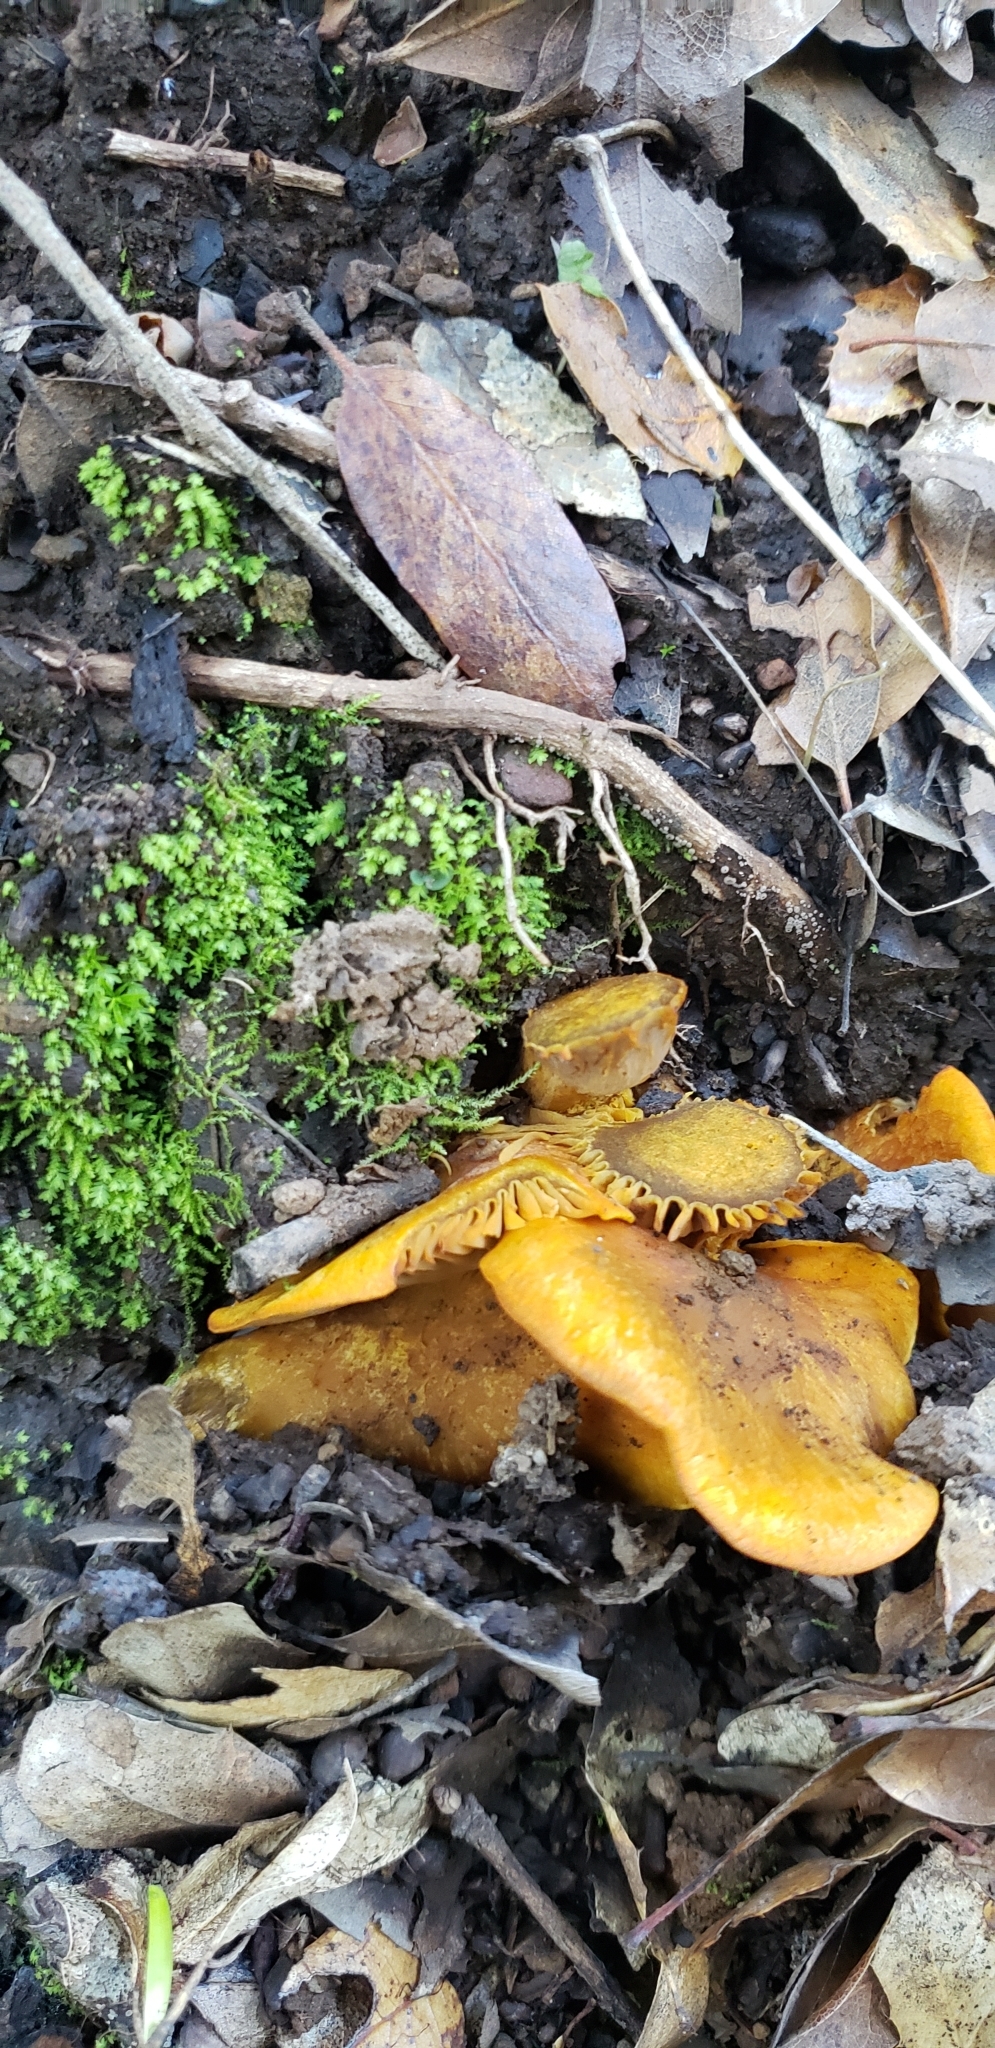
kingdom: Fungi
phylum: Basidiomycota
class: Agaricomycetes
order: Agaricales
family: Omphalotaceae
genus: Omphalotus
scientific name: Omphalotus olivascens
